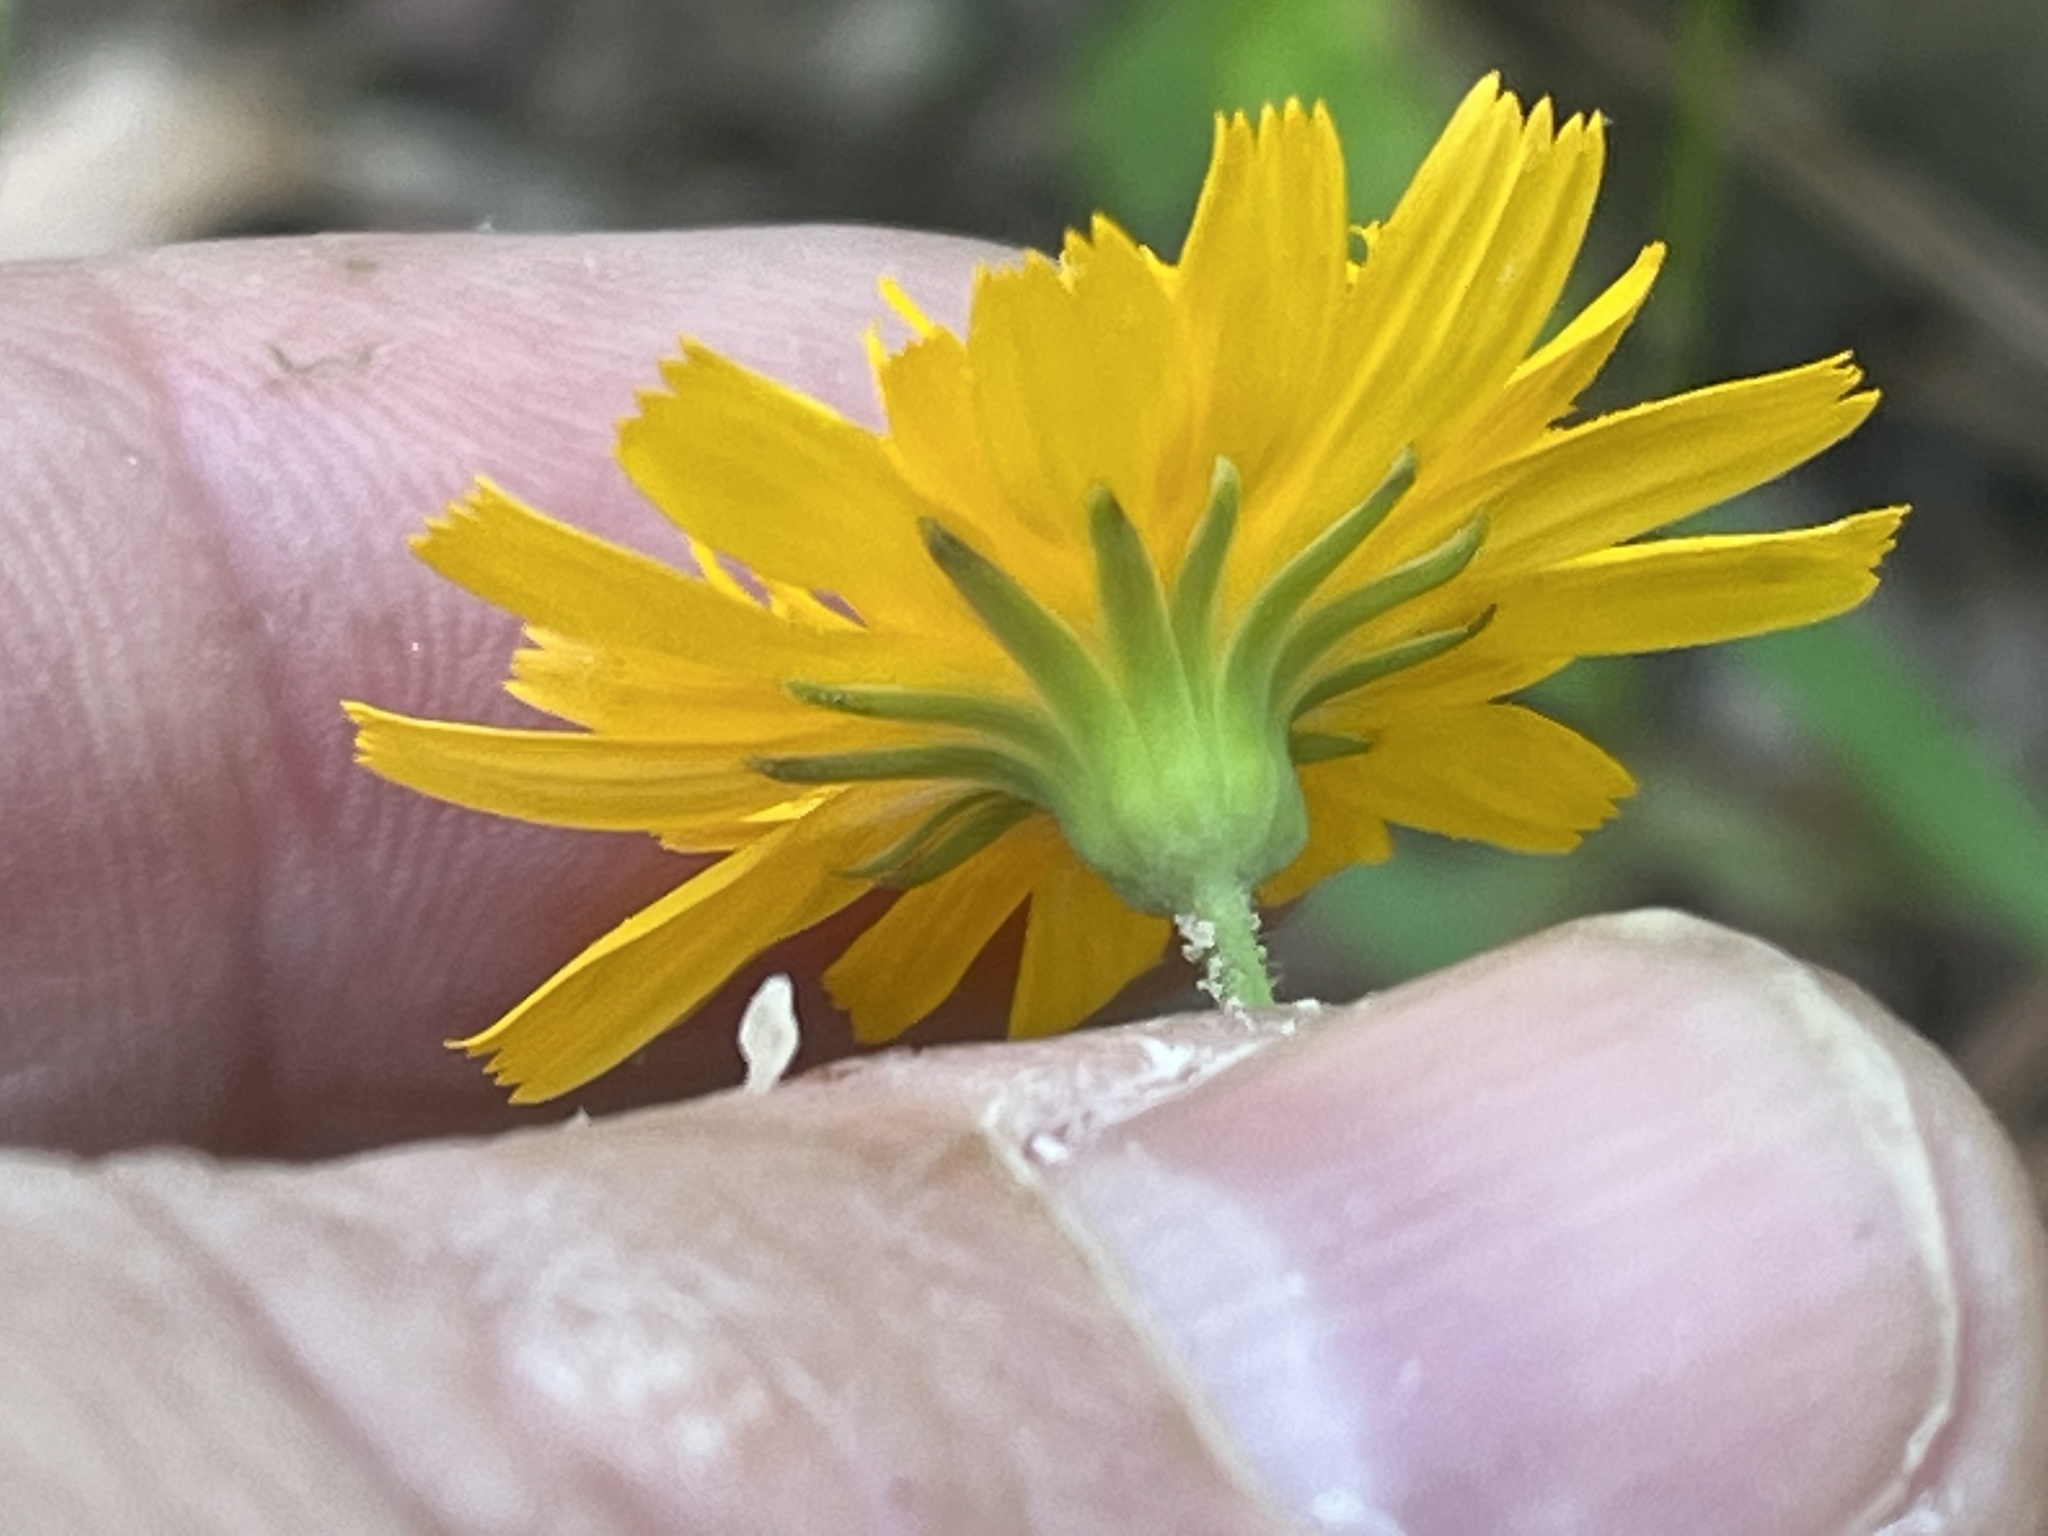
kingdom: Plantae
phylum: Tracheophyta
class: Magnoliopsida
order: Asterales
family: Asteraceae
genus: Krigia
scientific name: Krigia biflora
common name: Orange dwarf-dandelion
